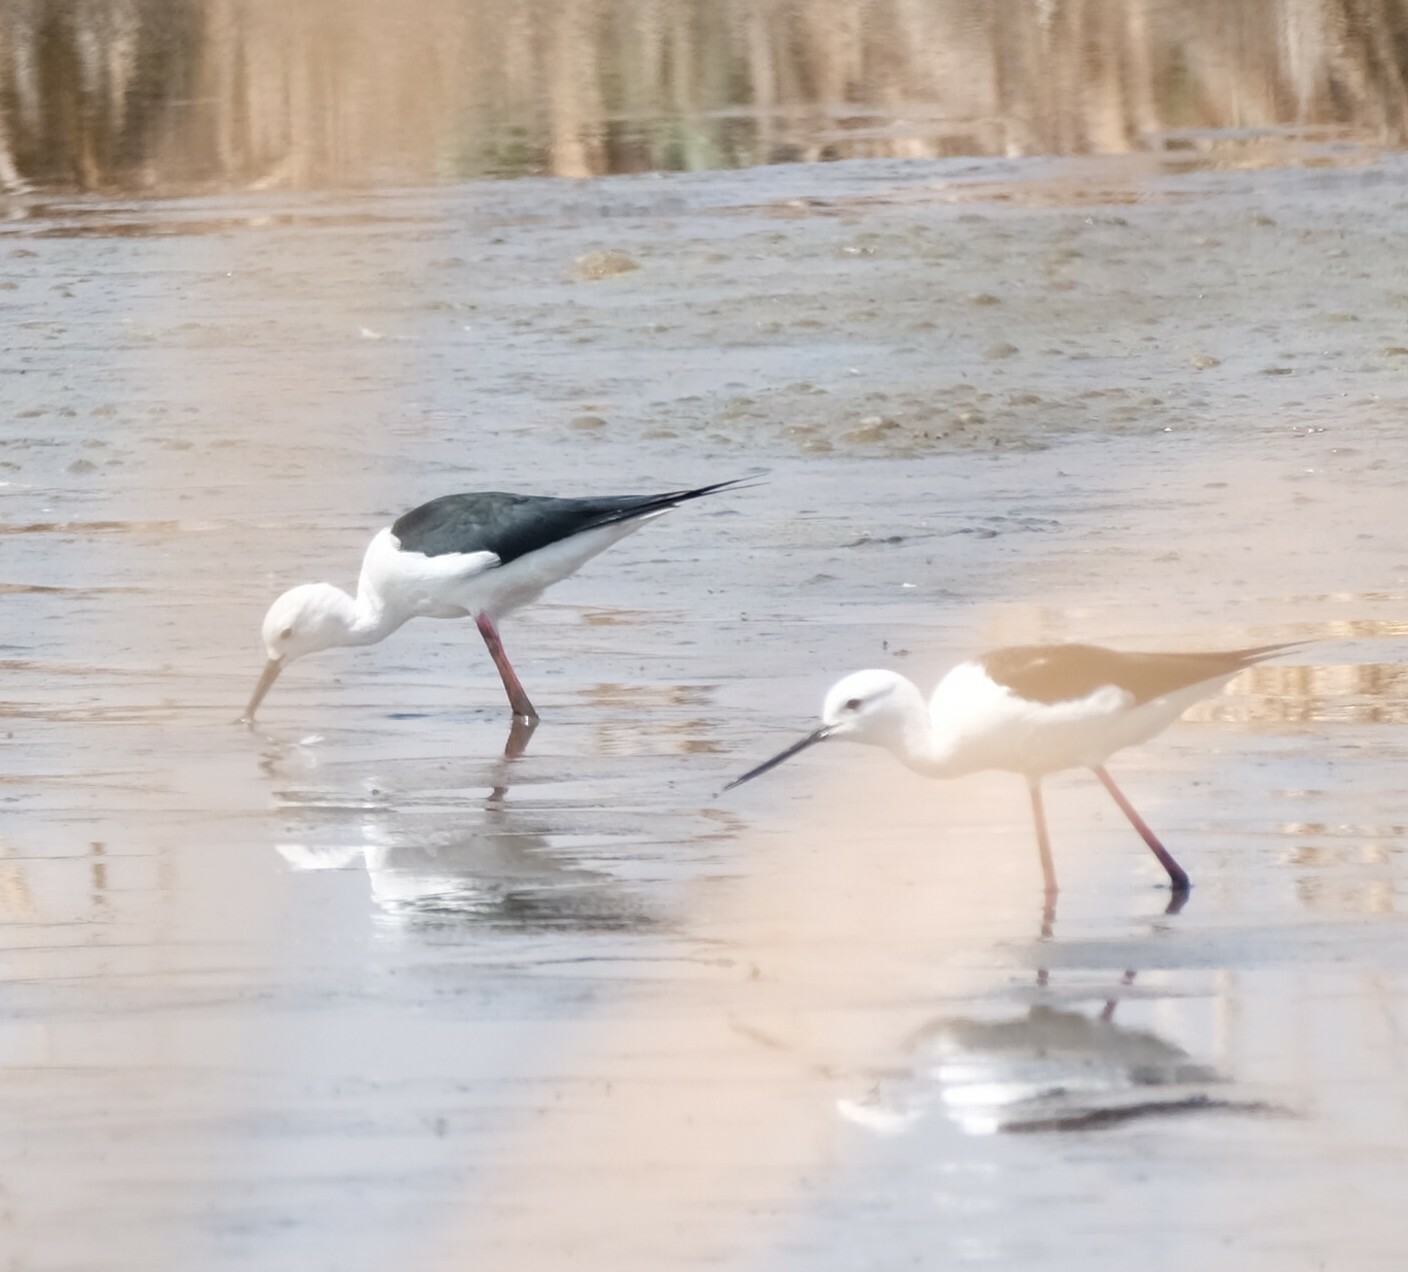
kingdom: Animalia
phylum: Chordata
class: Aves
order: Charadriiformes
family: Recurvirostridae
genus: Himantopus
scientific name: Himantopus himantopus
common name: Black-winged stilt
